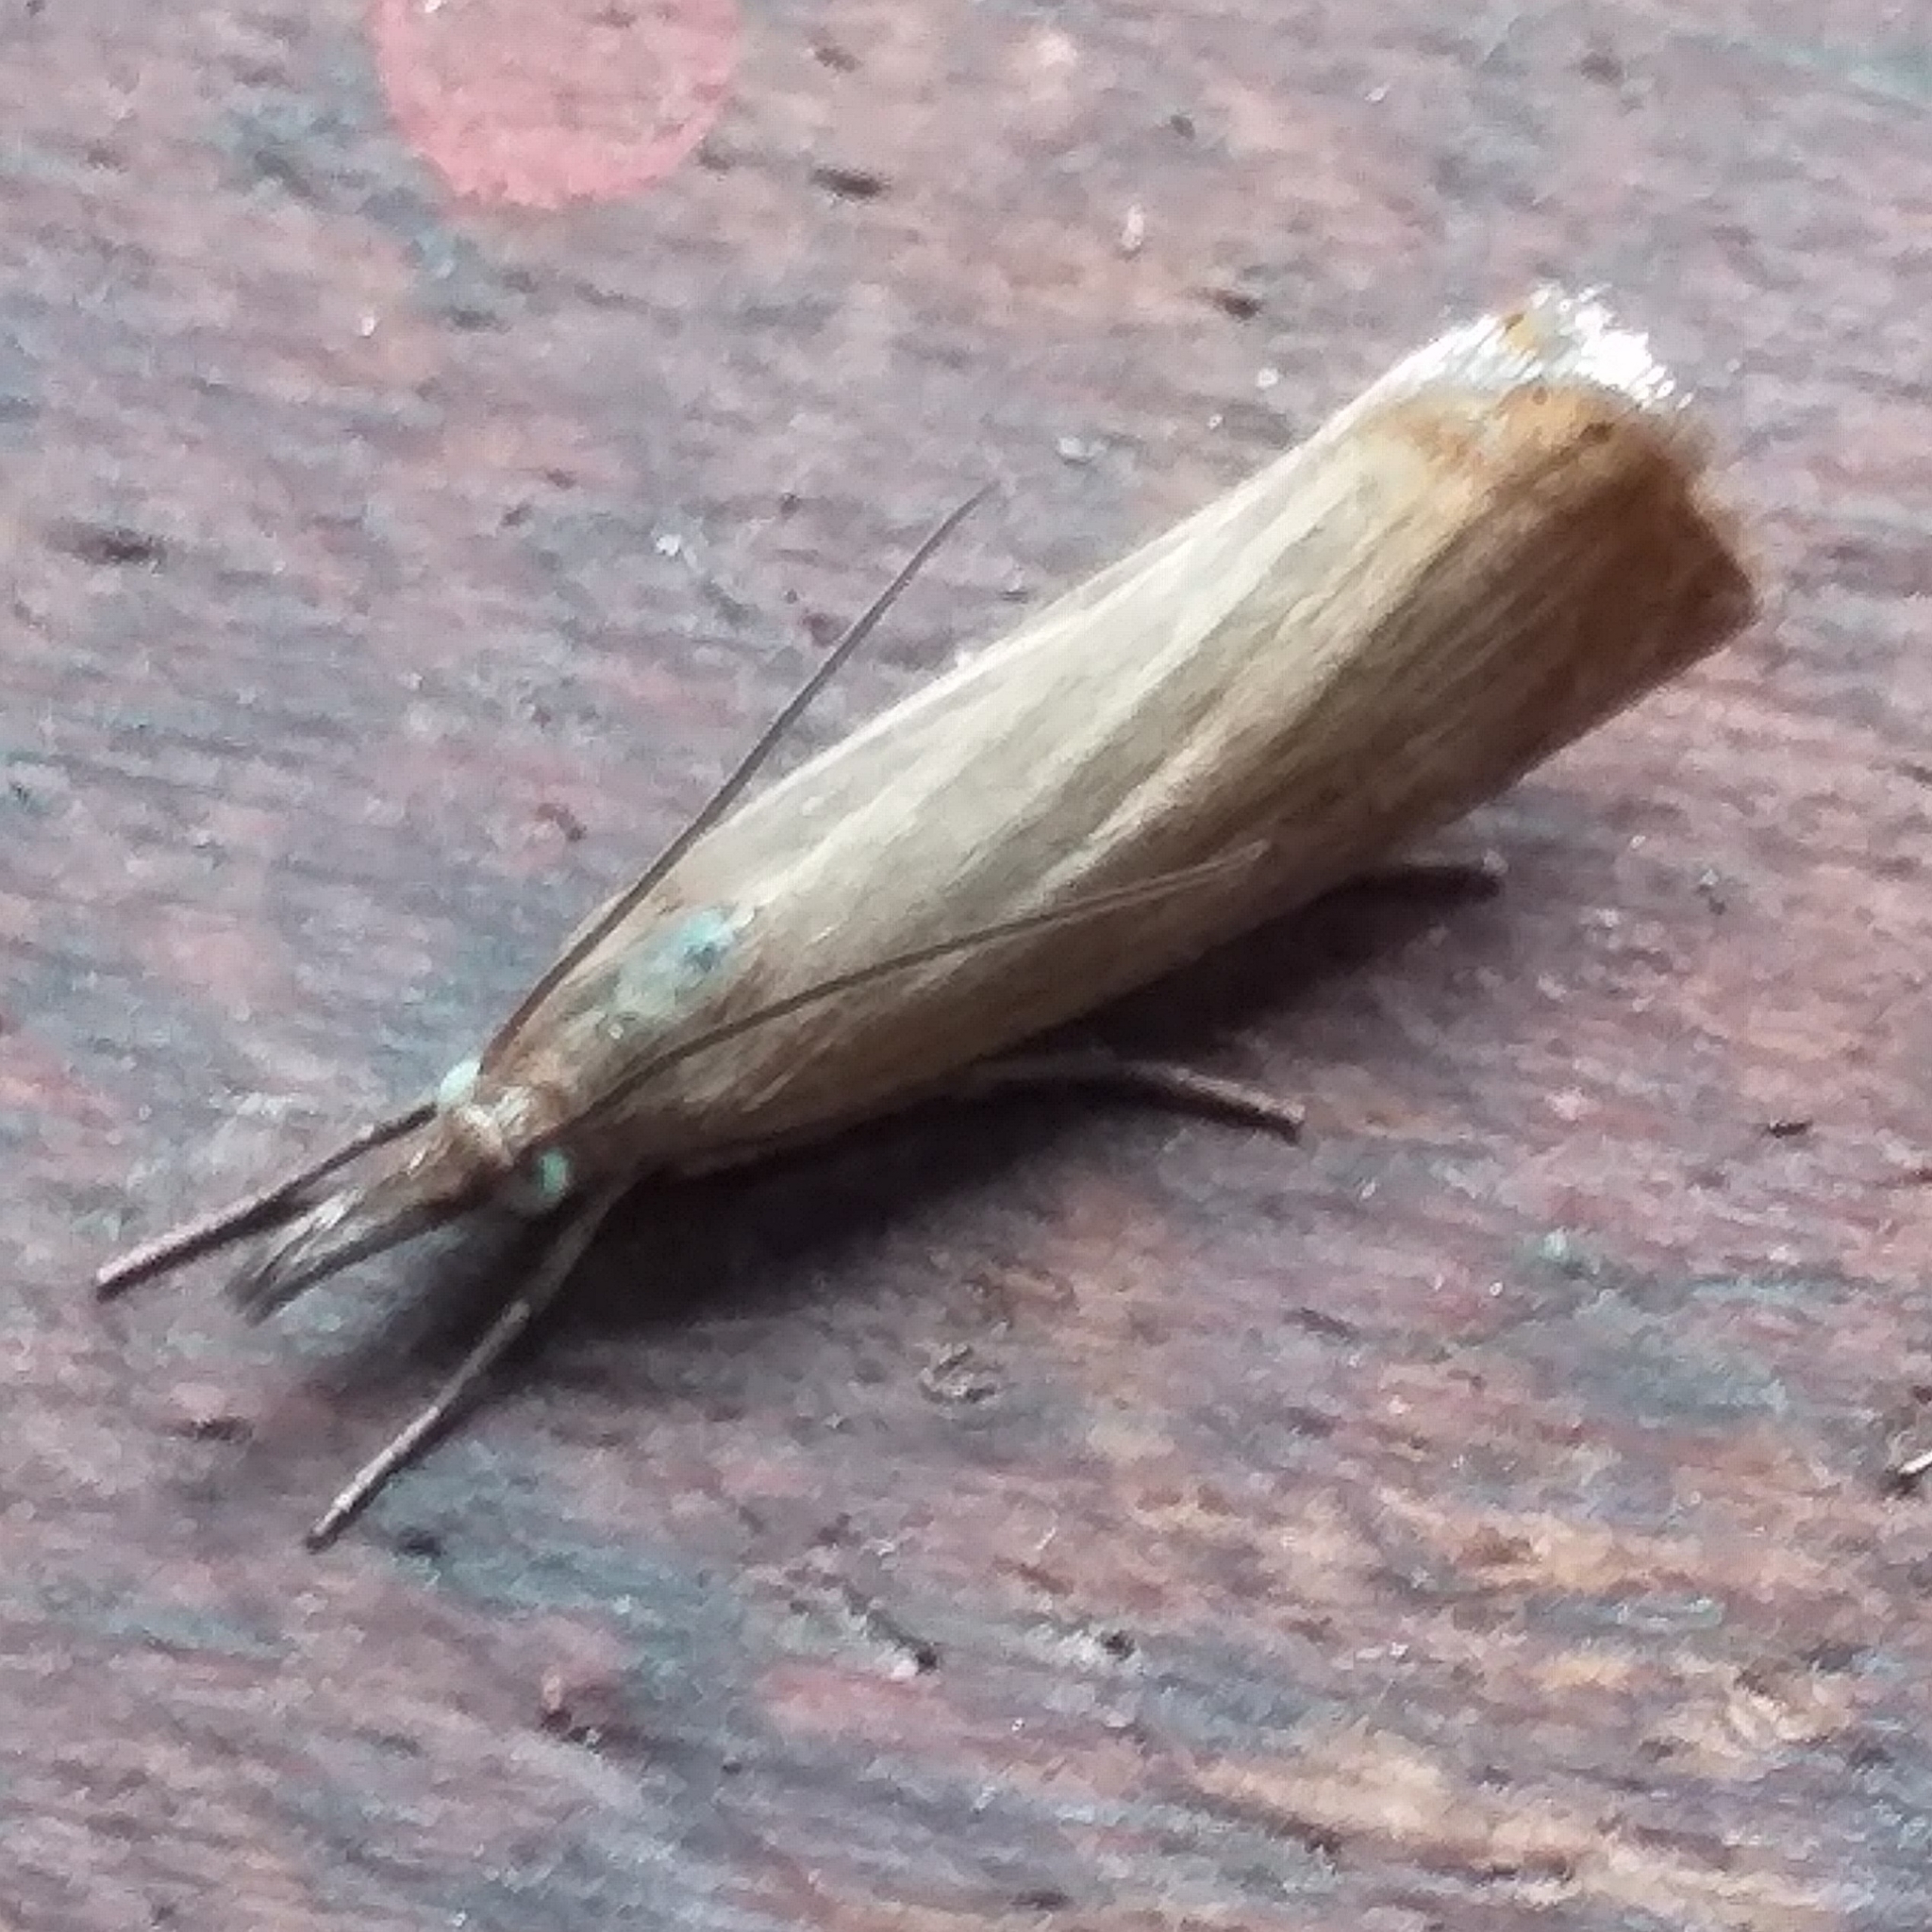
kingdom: Animalia
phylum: Arthropoda
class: Insecta
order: Lepidoptera
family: Crambidae
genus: Chrysoteuchia
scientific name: Chrysoteuchia culmella
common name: Garden grass-veneer
